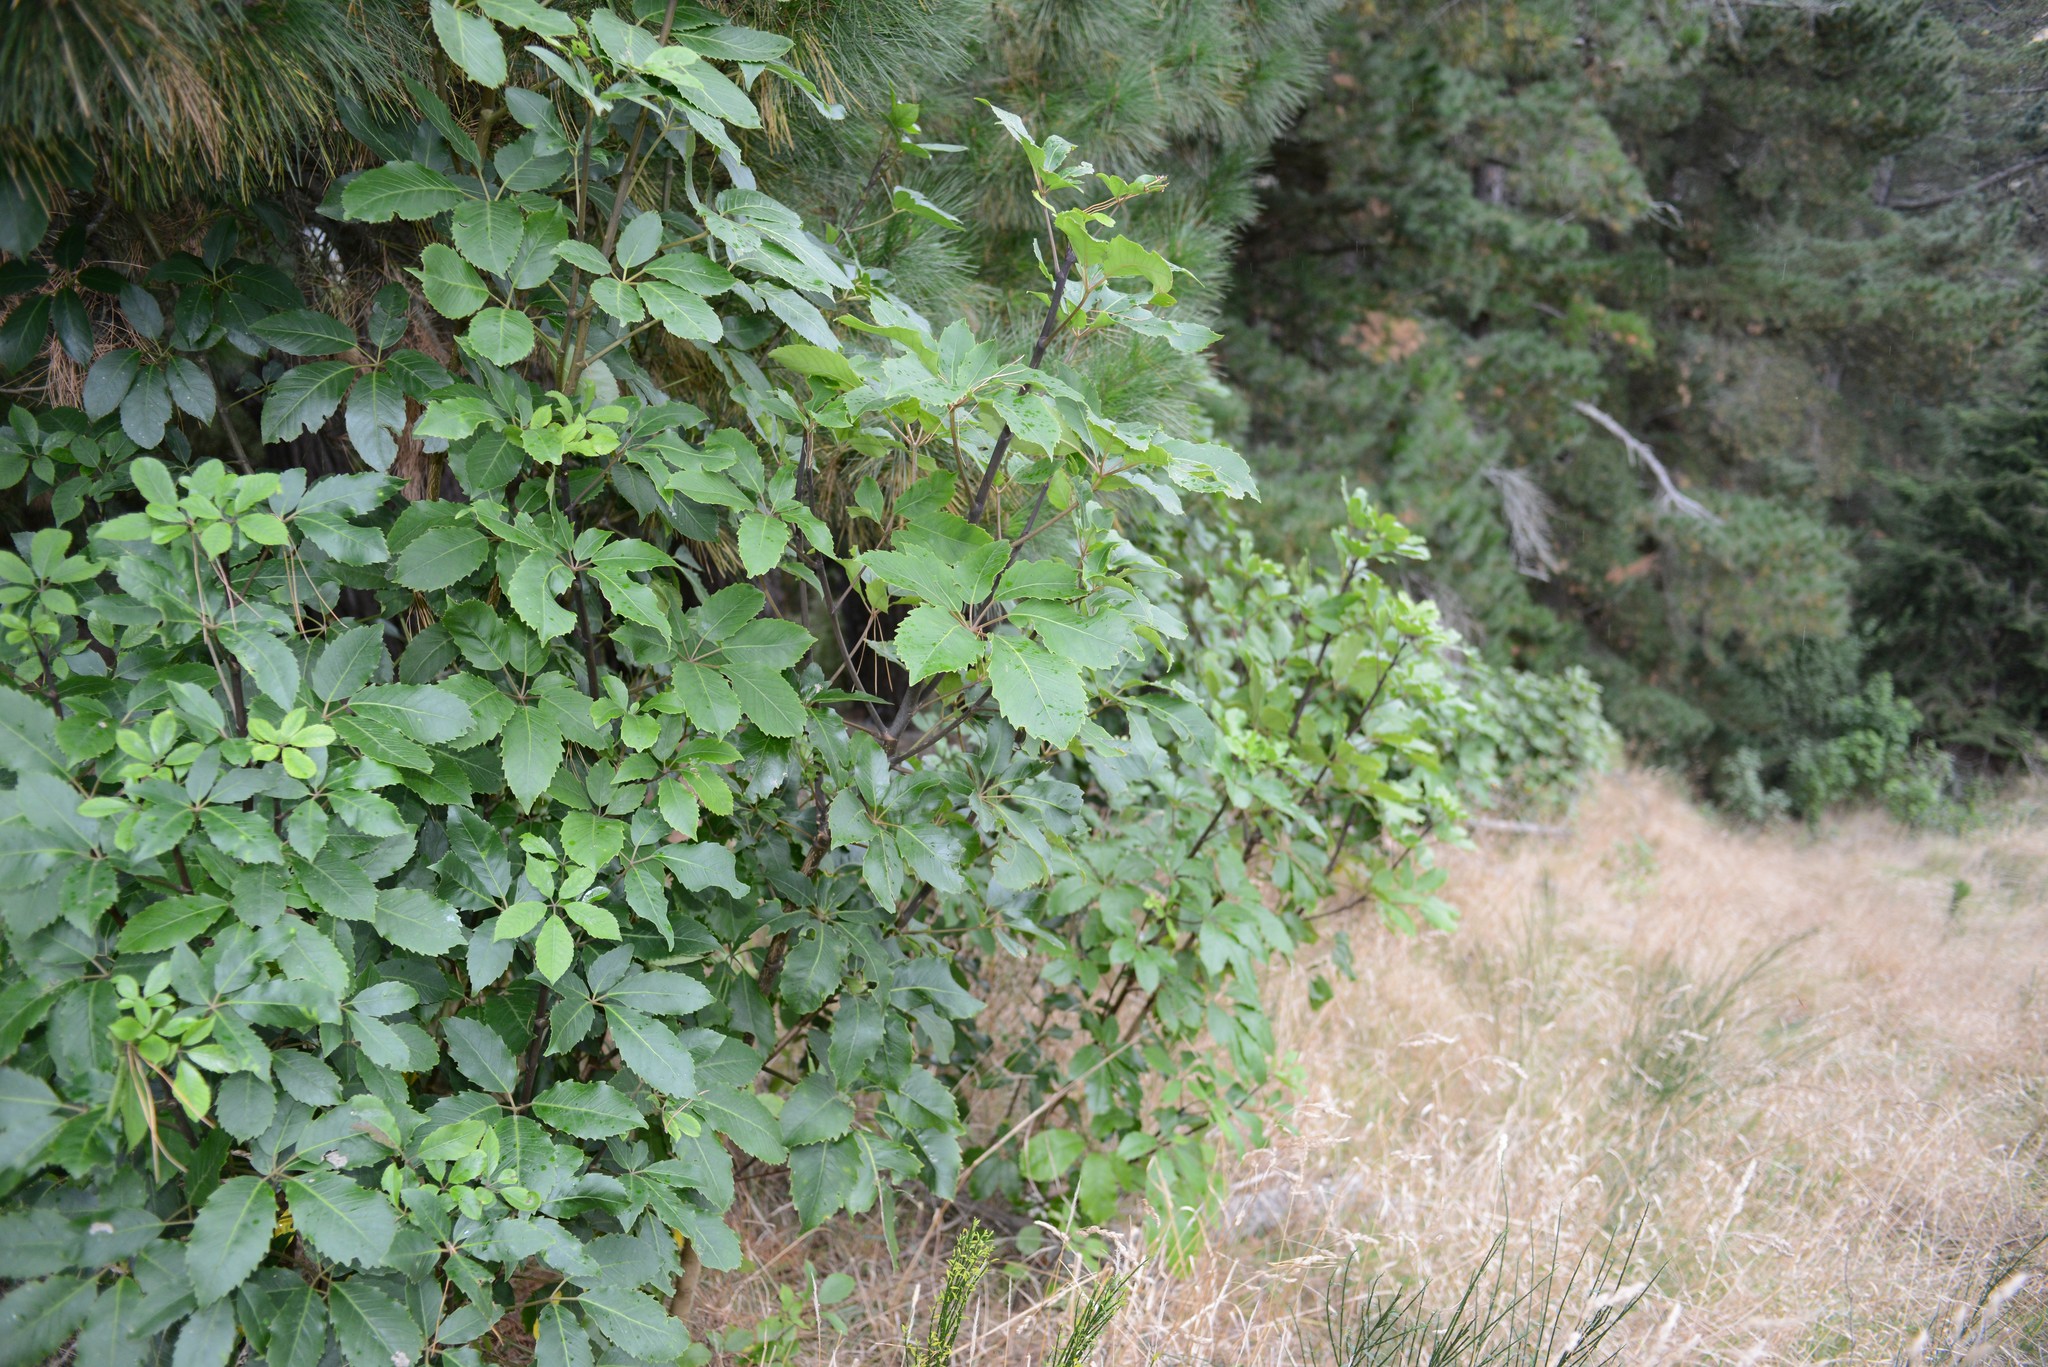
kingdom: Plantae
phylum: Tracheophyta
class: Magnoliopsida
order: Apiales
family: Araliaceae
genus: Neopanax
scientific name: Neopanax arboreus
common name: Five-fingers
